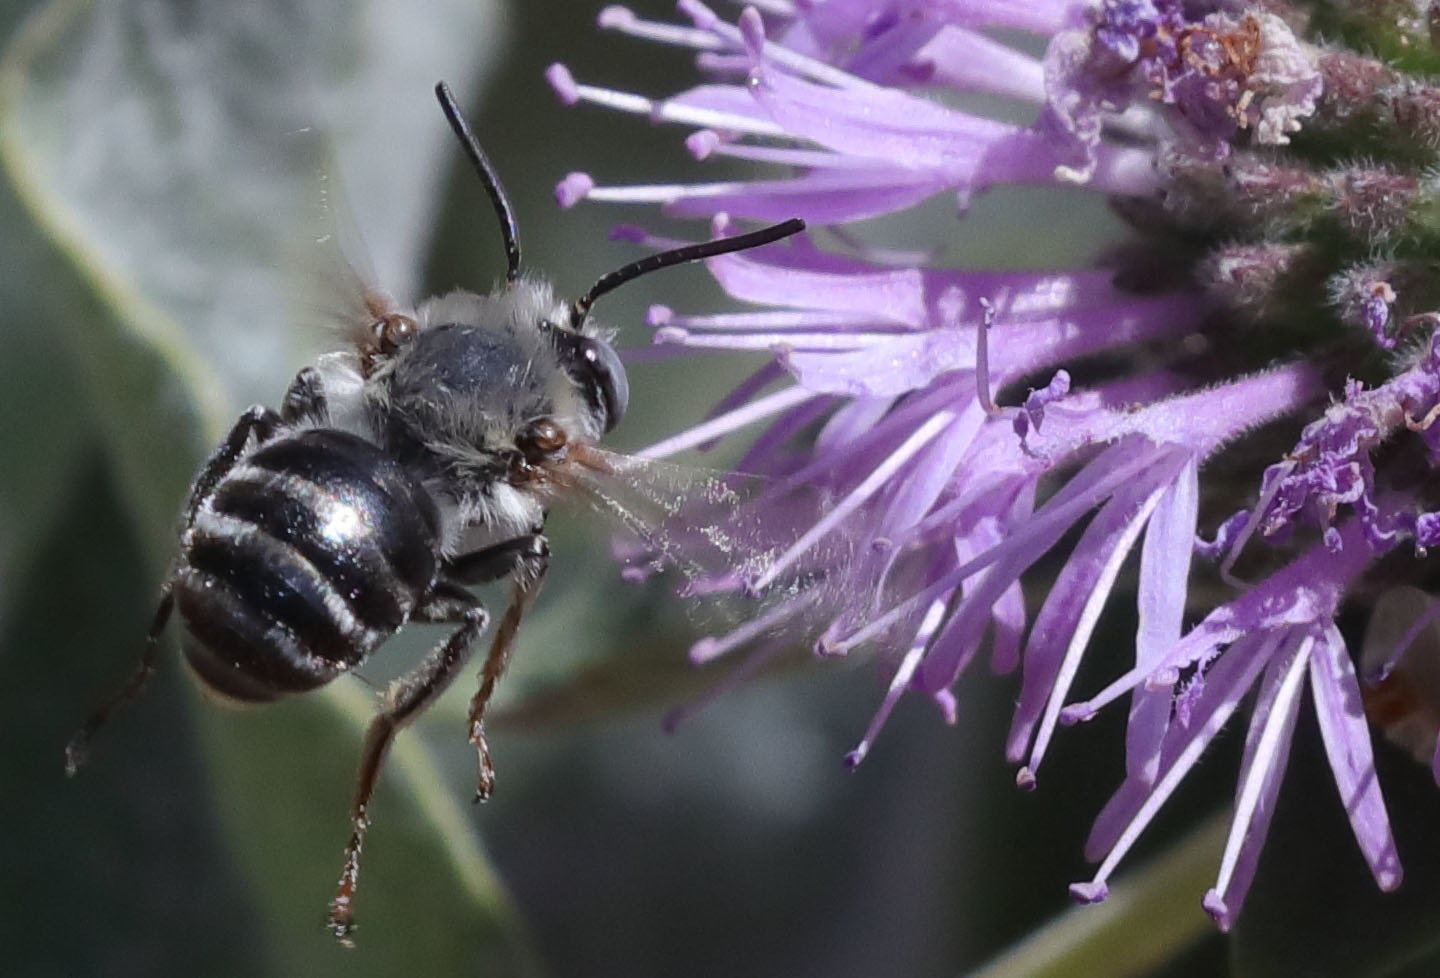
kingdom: Animalia
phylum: Arthropoda
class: Insecta
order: Hymenoptera
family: Apidae
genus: Anthophora
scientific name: Anthophora urbana
